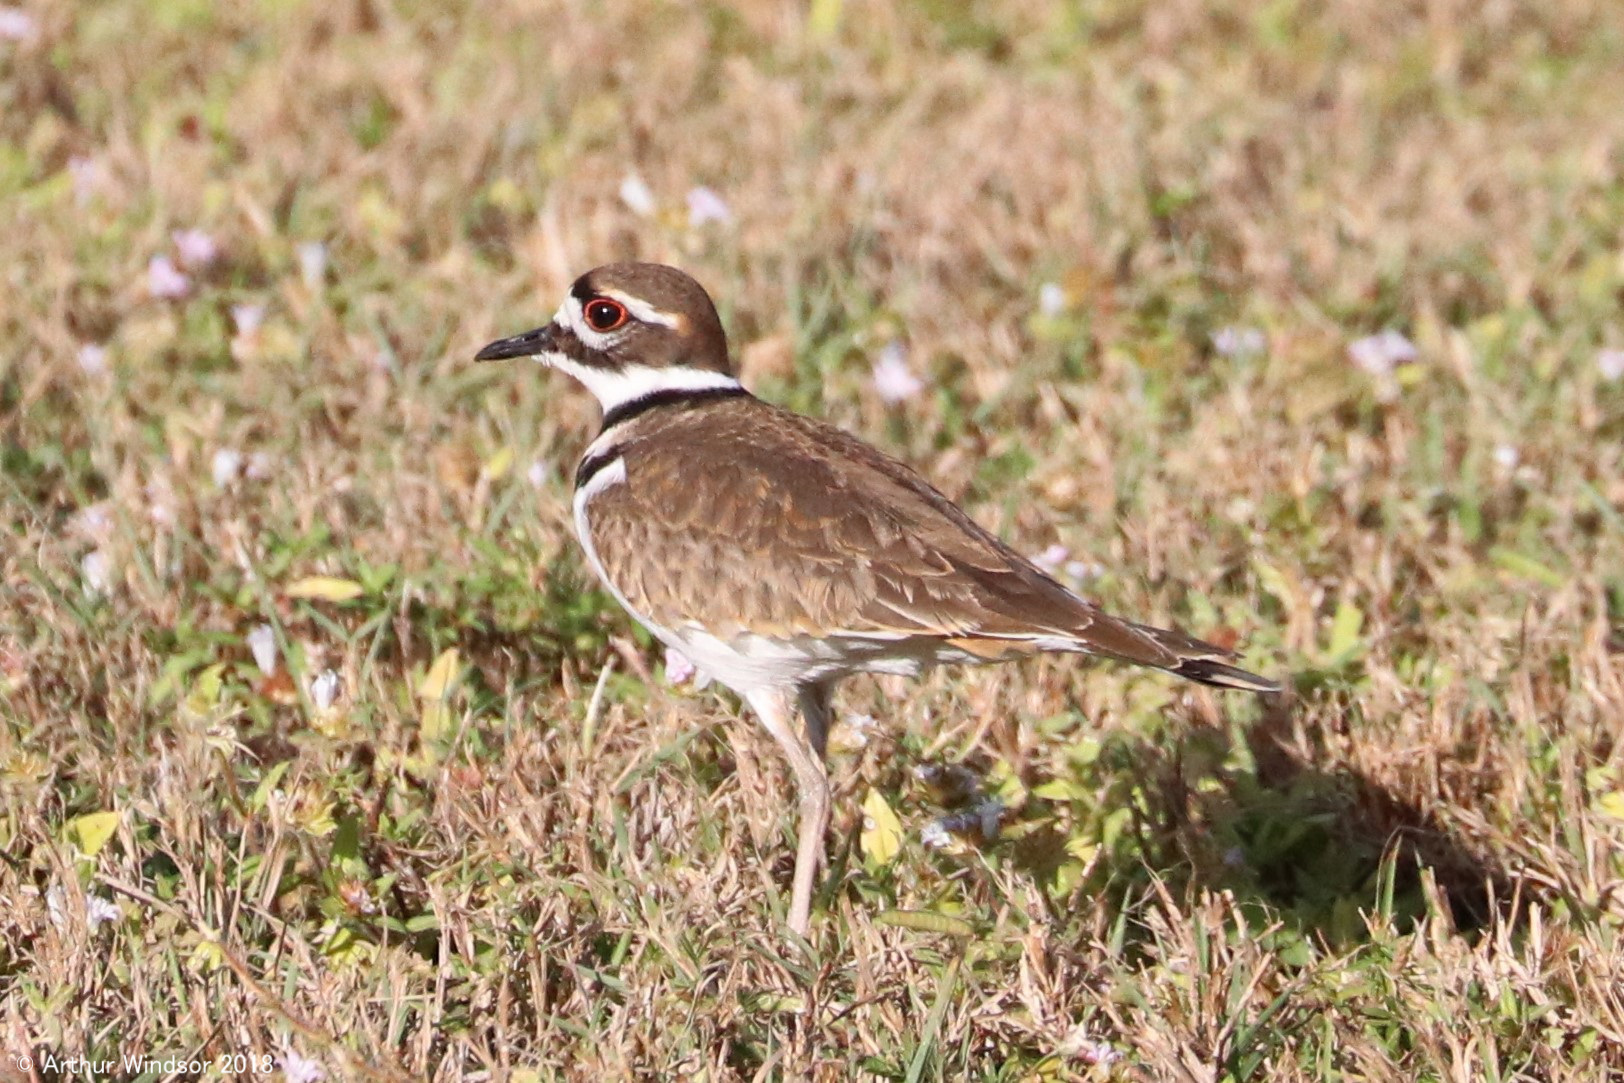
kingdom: Animalia
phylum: Chordata
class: Aves
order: Charadriiformes
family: Charadriidae
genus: Charadrius
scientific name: Charadrius vociferus
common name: Killdeer
